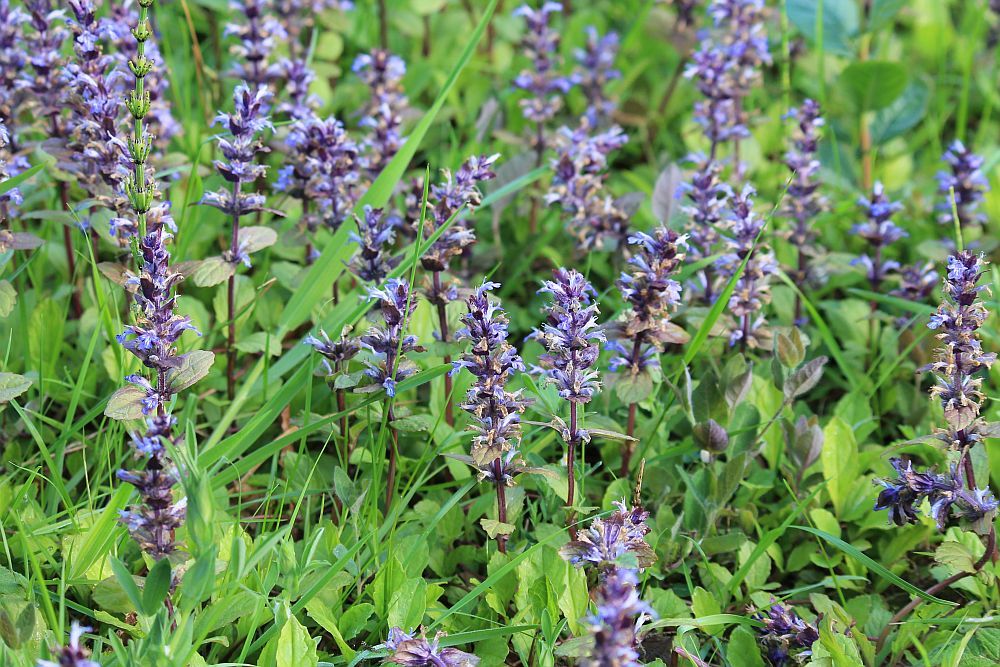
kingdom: Plantae
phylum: Tracheophyta
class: Magnoliopsida
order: Lamiales
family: Lamiaceae
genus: Ajuga
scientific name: Ajuga reptans
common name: Bugle
